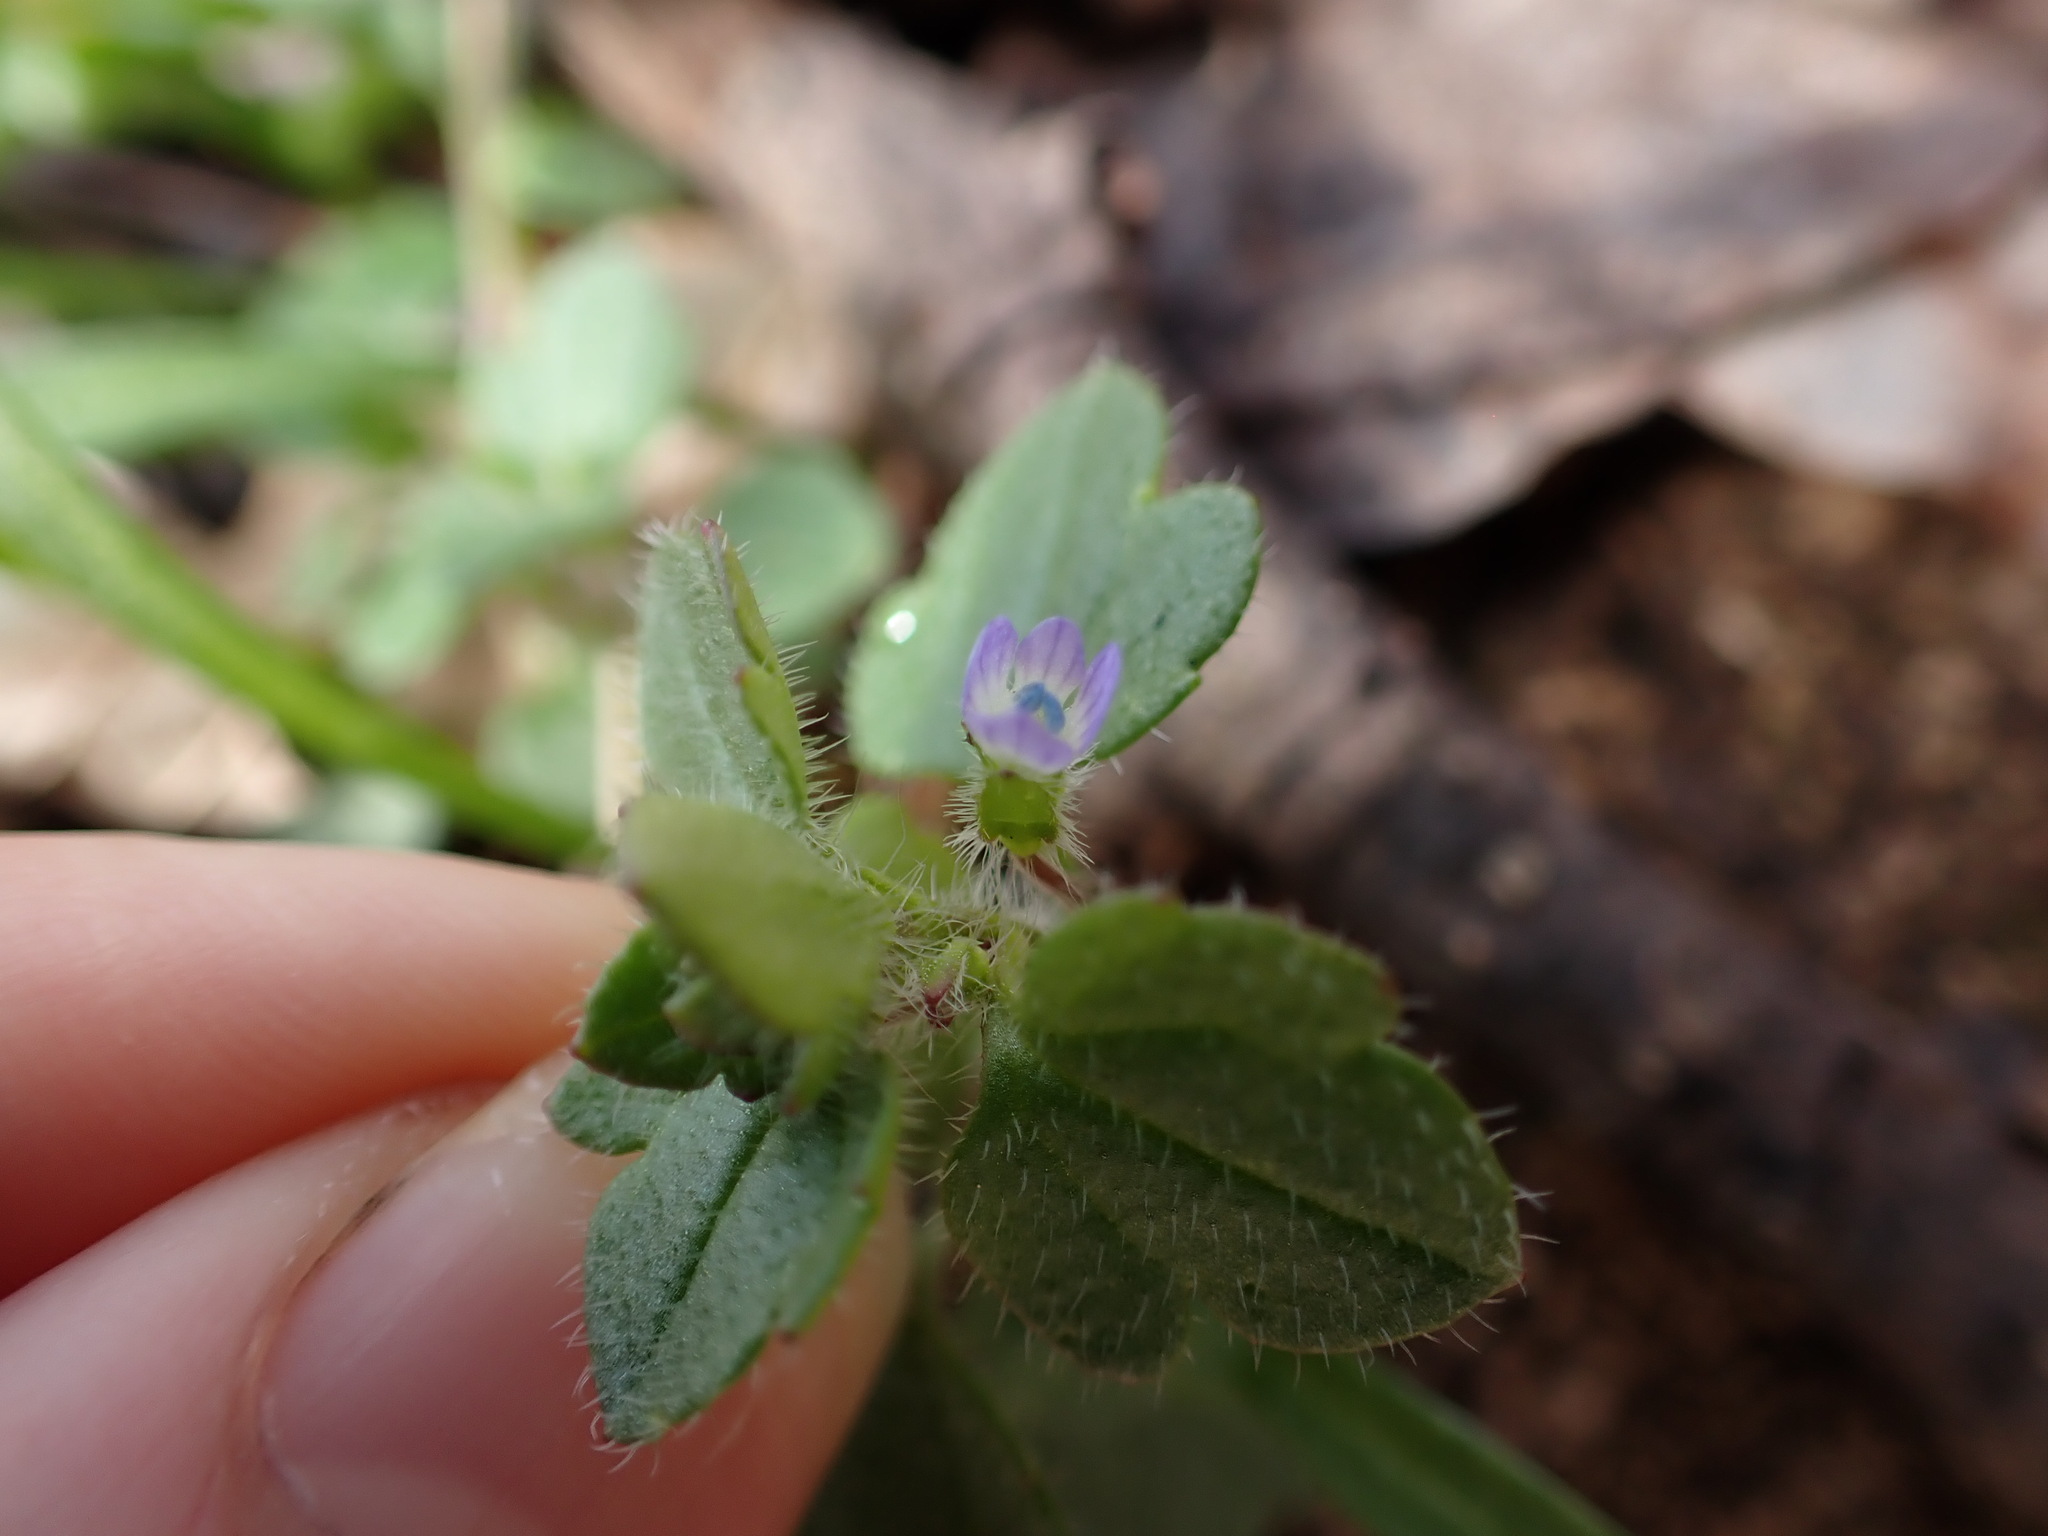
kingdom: Plantae
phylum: Tracheophyta
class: Magnoliopsida
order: Lamiales
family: Plantaginaceae
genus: Veronica
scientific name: Veronica hederifolia
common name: Ivy-leaved speedwell
